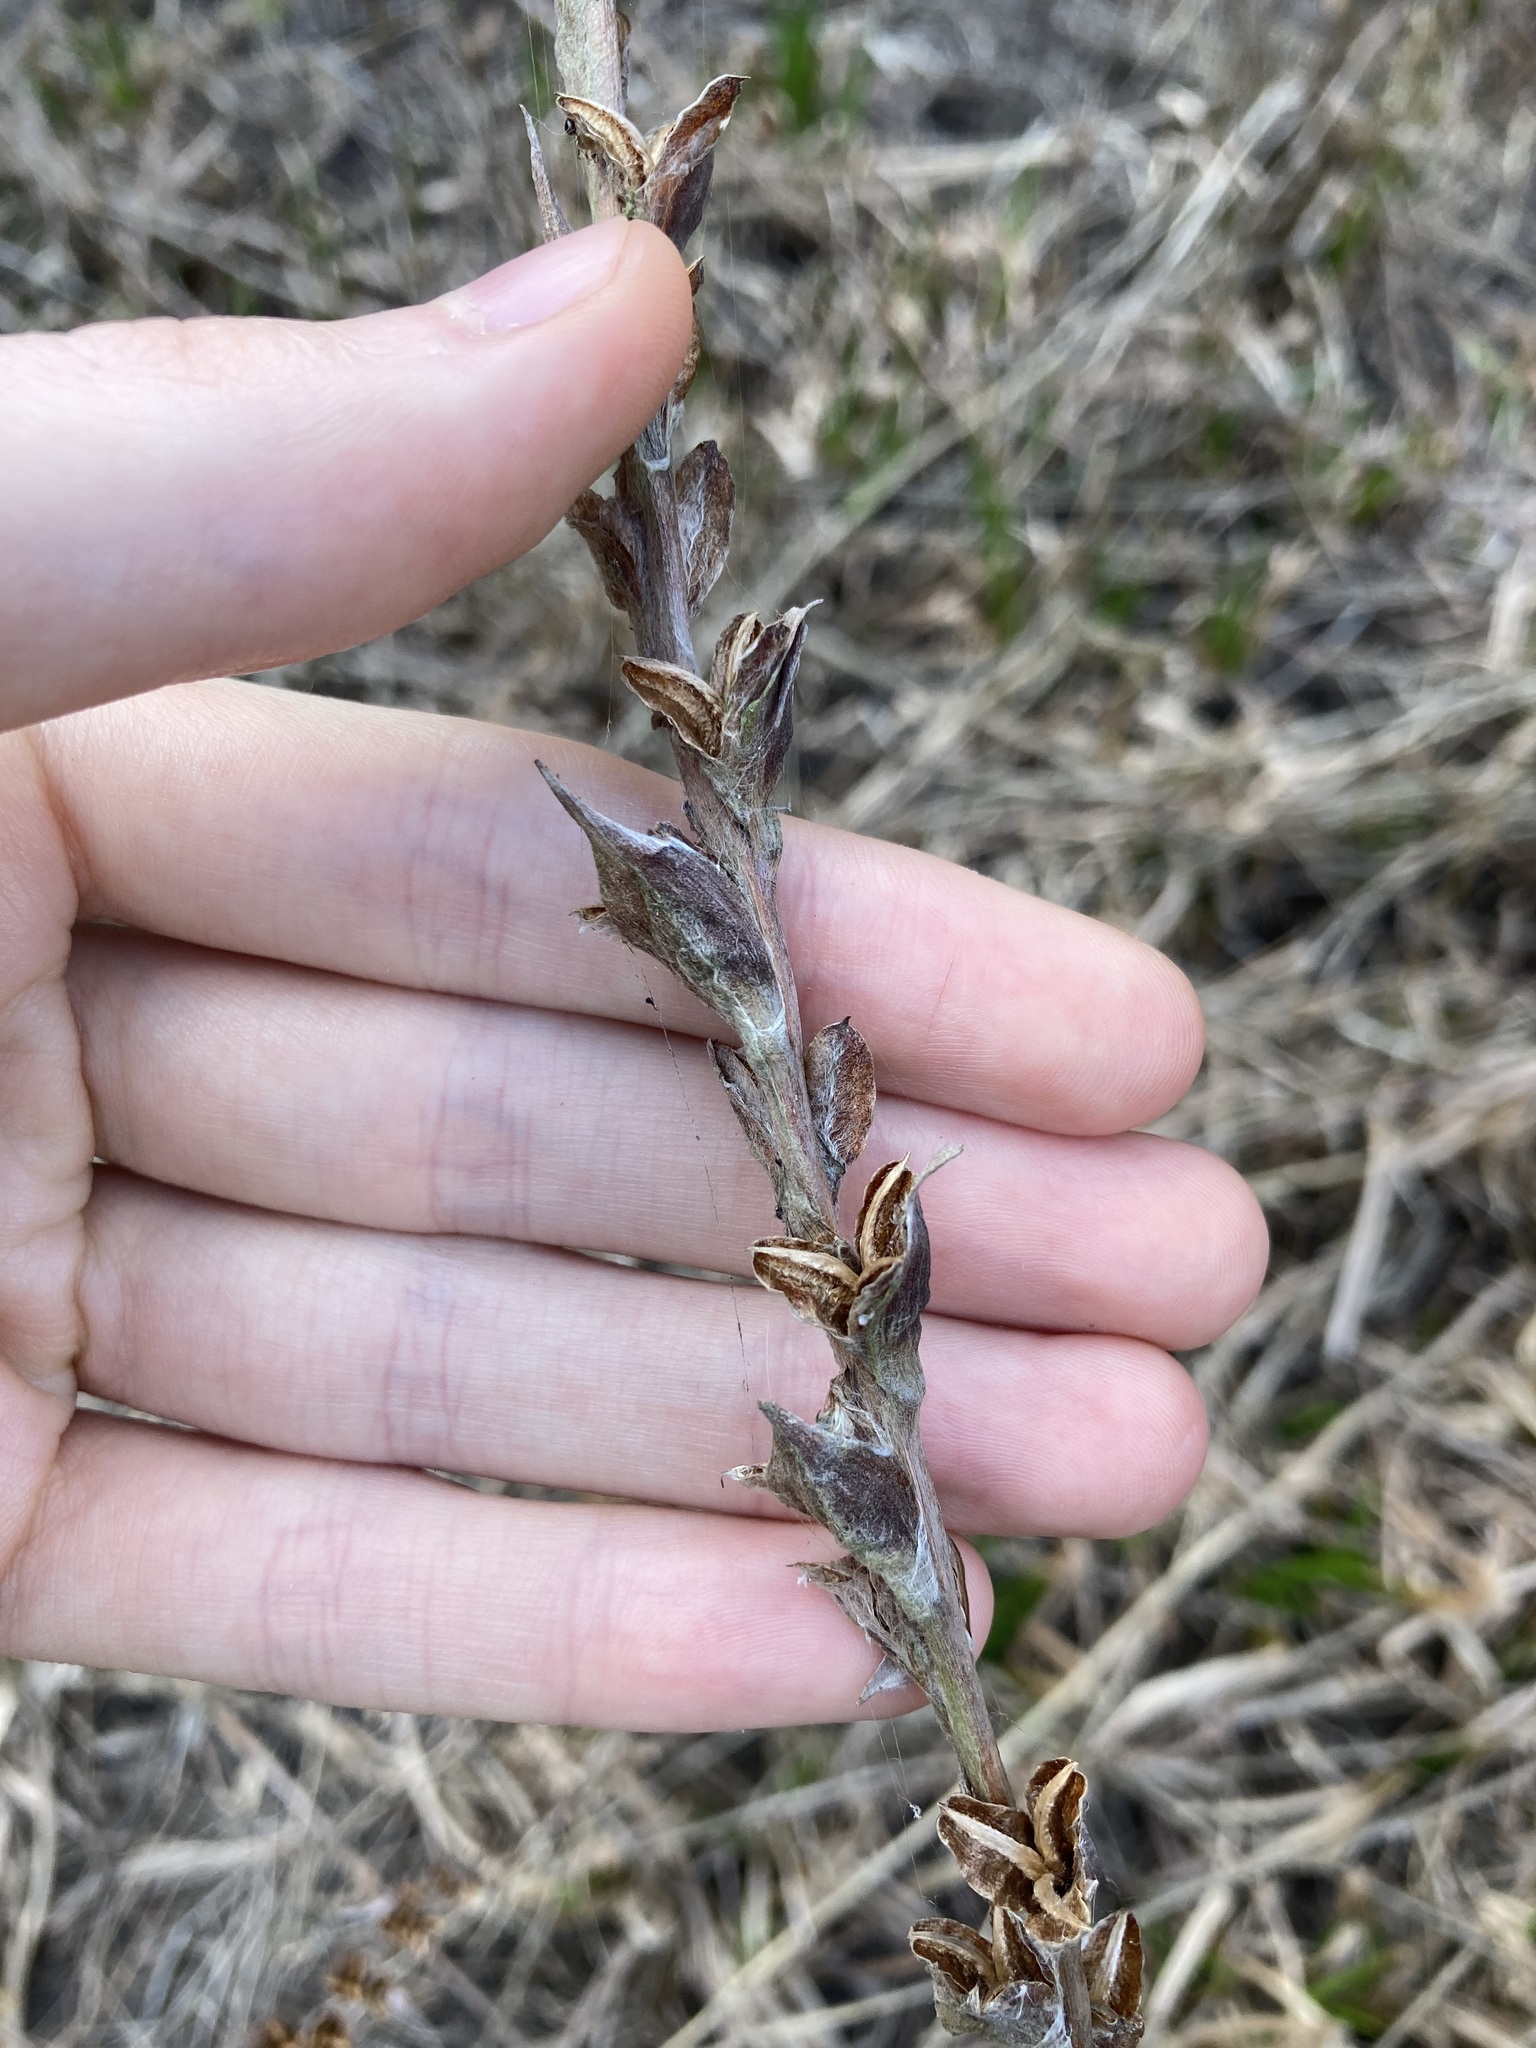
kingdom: Plantae
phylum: Tracheophyta
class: Liliopsida
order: Commelinales
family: Philydraceae
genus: Philydrum
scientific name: Philydrum lanuginosum
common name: Woolly frog's mouth
